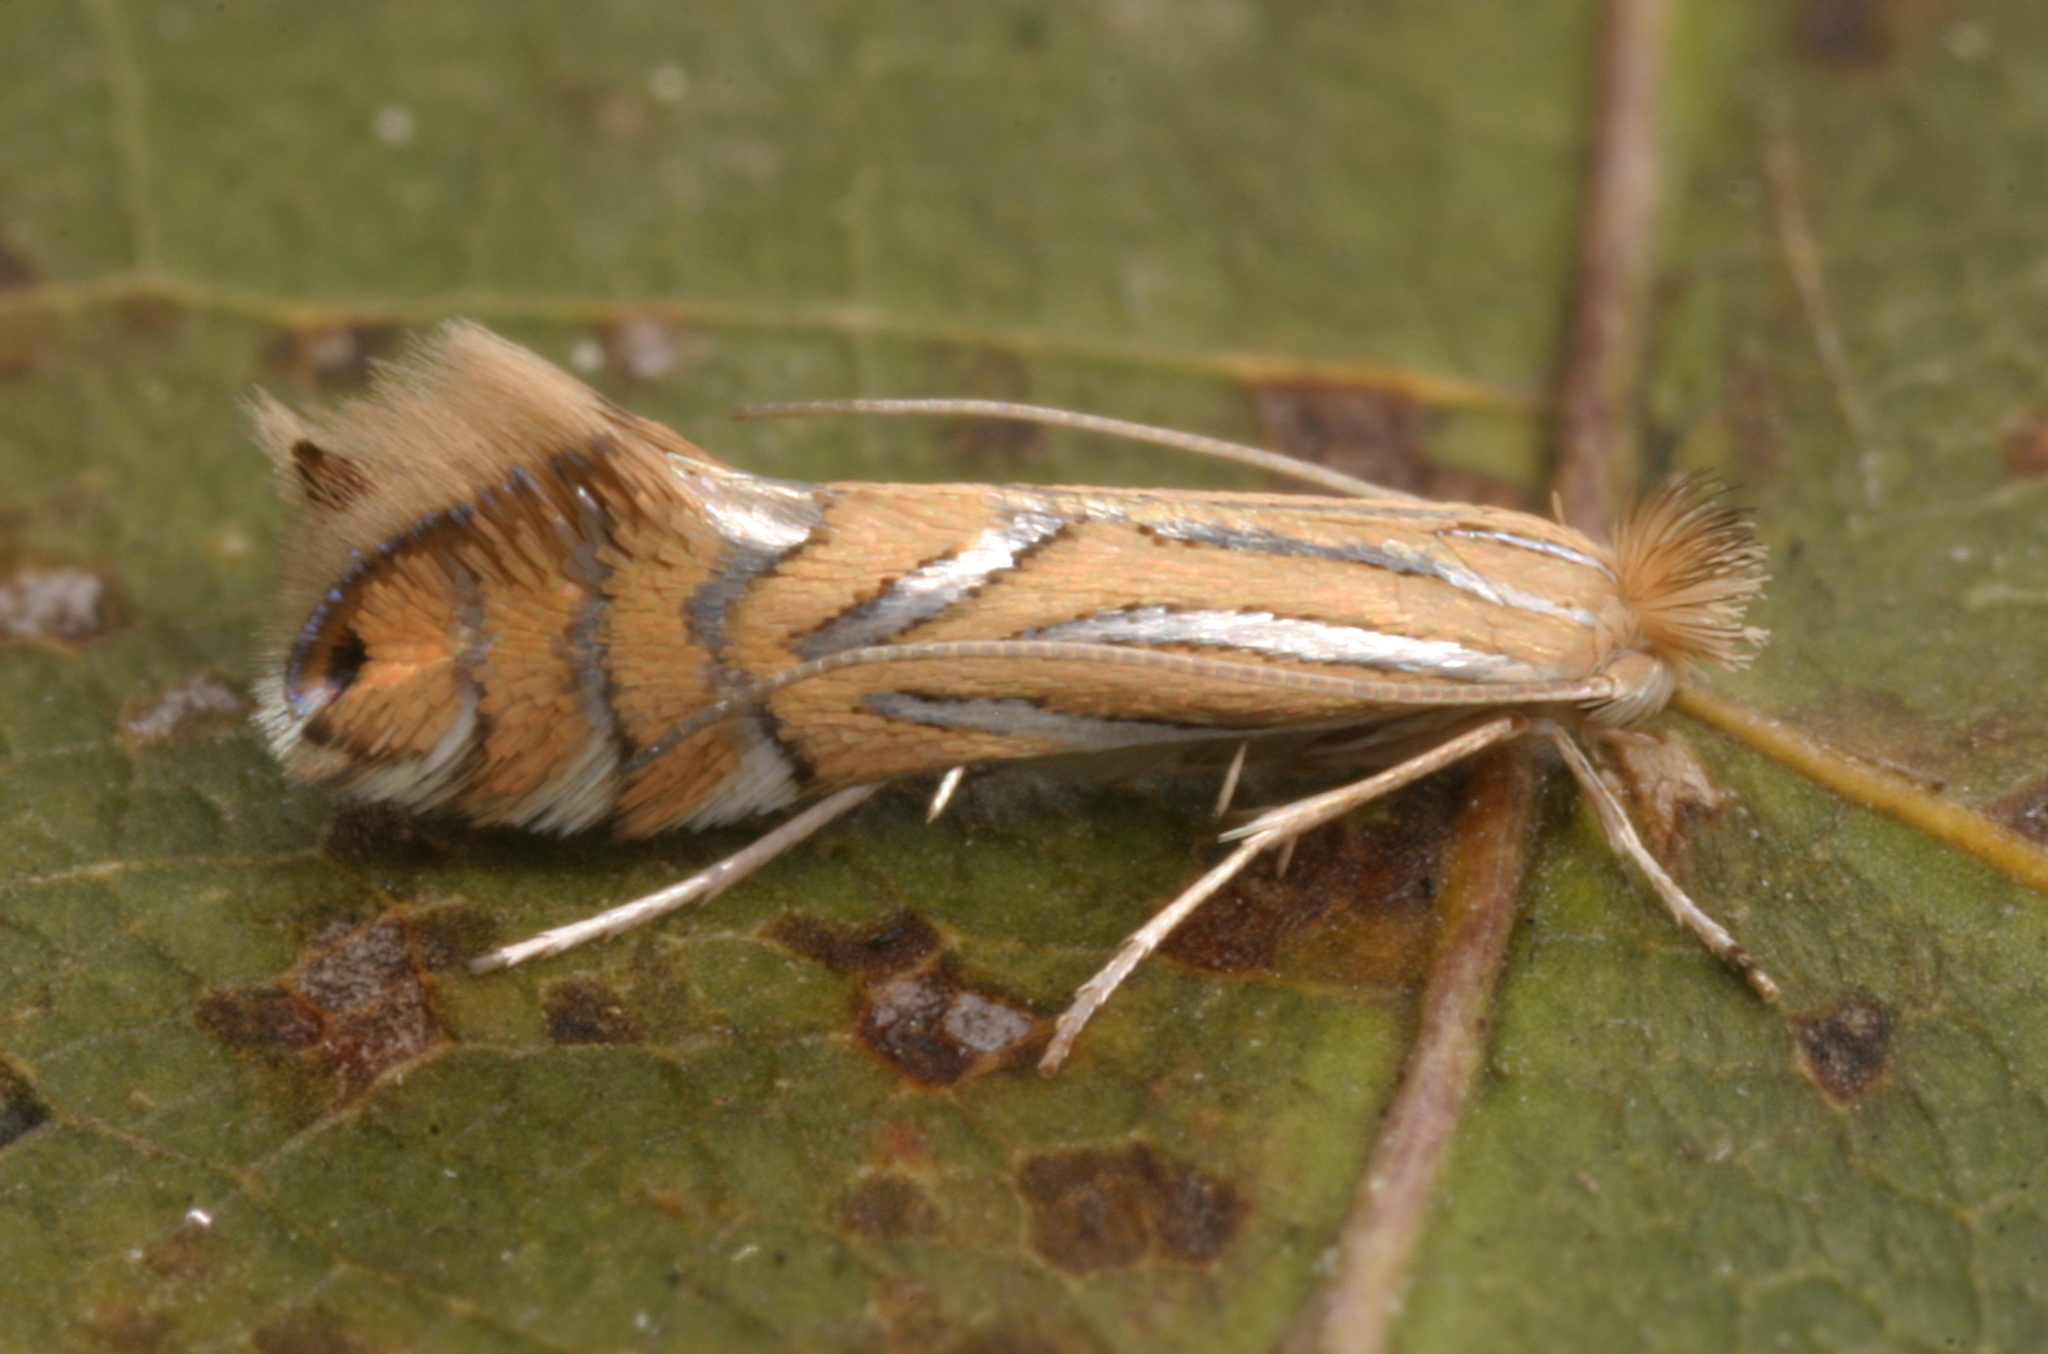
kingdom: Animalia
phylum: Arthropoda
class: Insecta
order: Lepidoptera
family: Gracillariidae
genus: Phyllonorycter
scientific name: Phyllonorycter platani
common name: London midget
